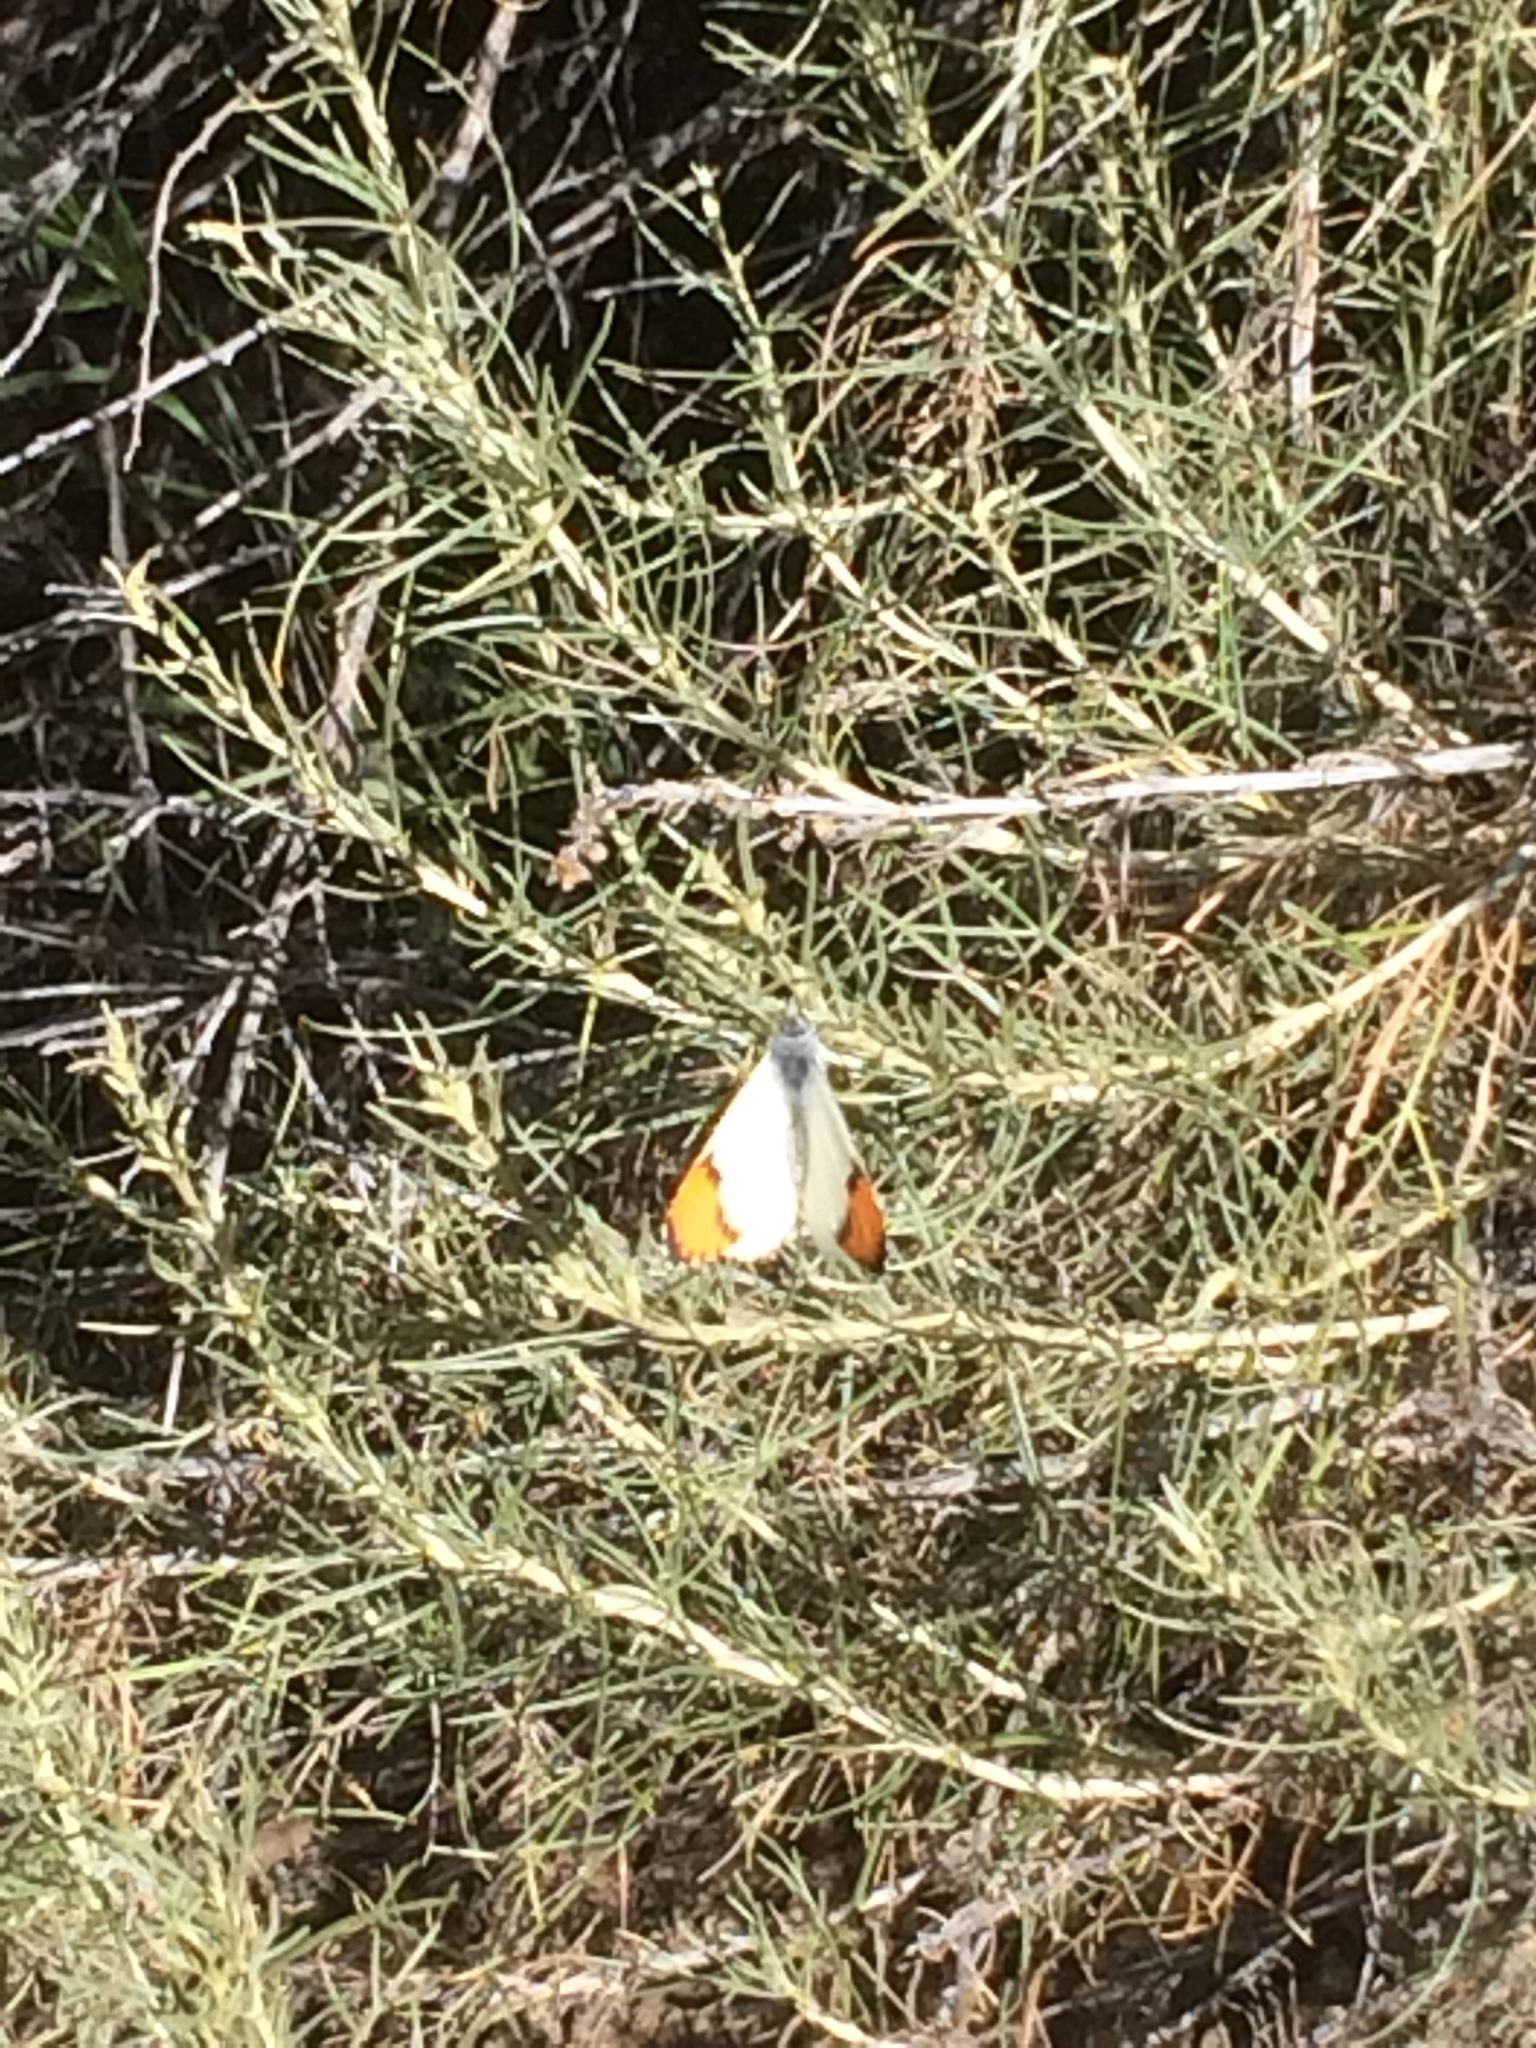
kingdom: Animalia
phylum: Arthropoda
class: Insecta
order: Lepidoptera
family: Pieridae
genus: Anthocharis
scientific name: Anthocharis sara
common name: Sara's orangetip
